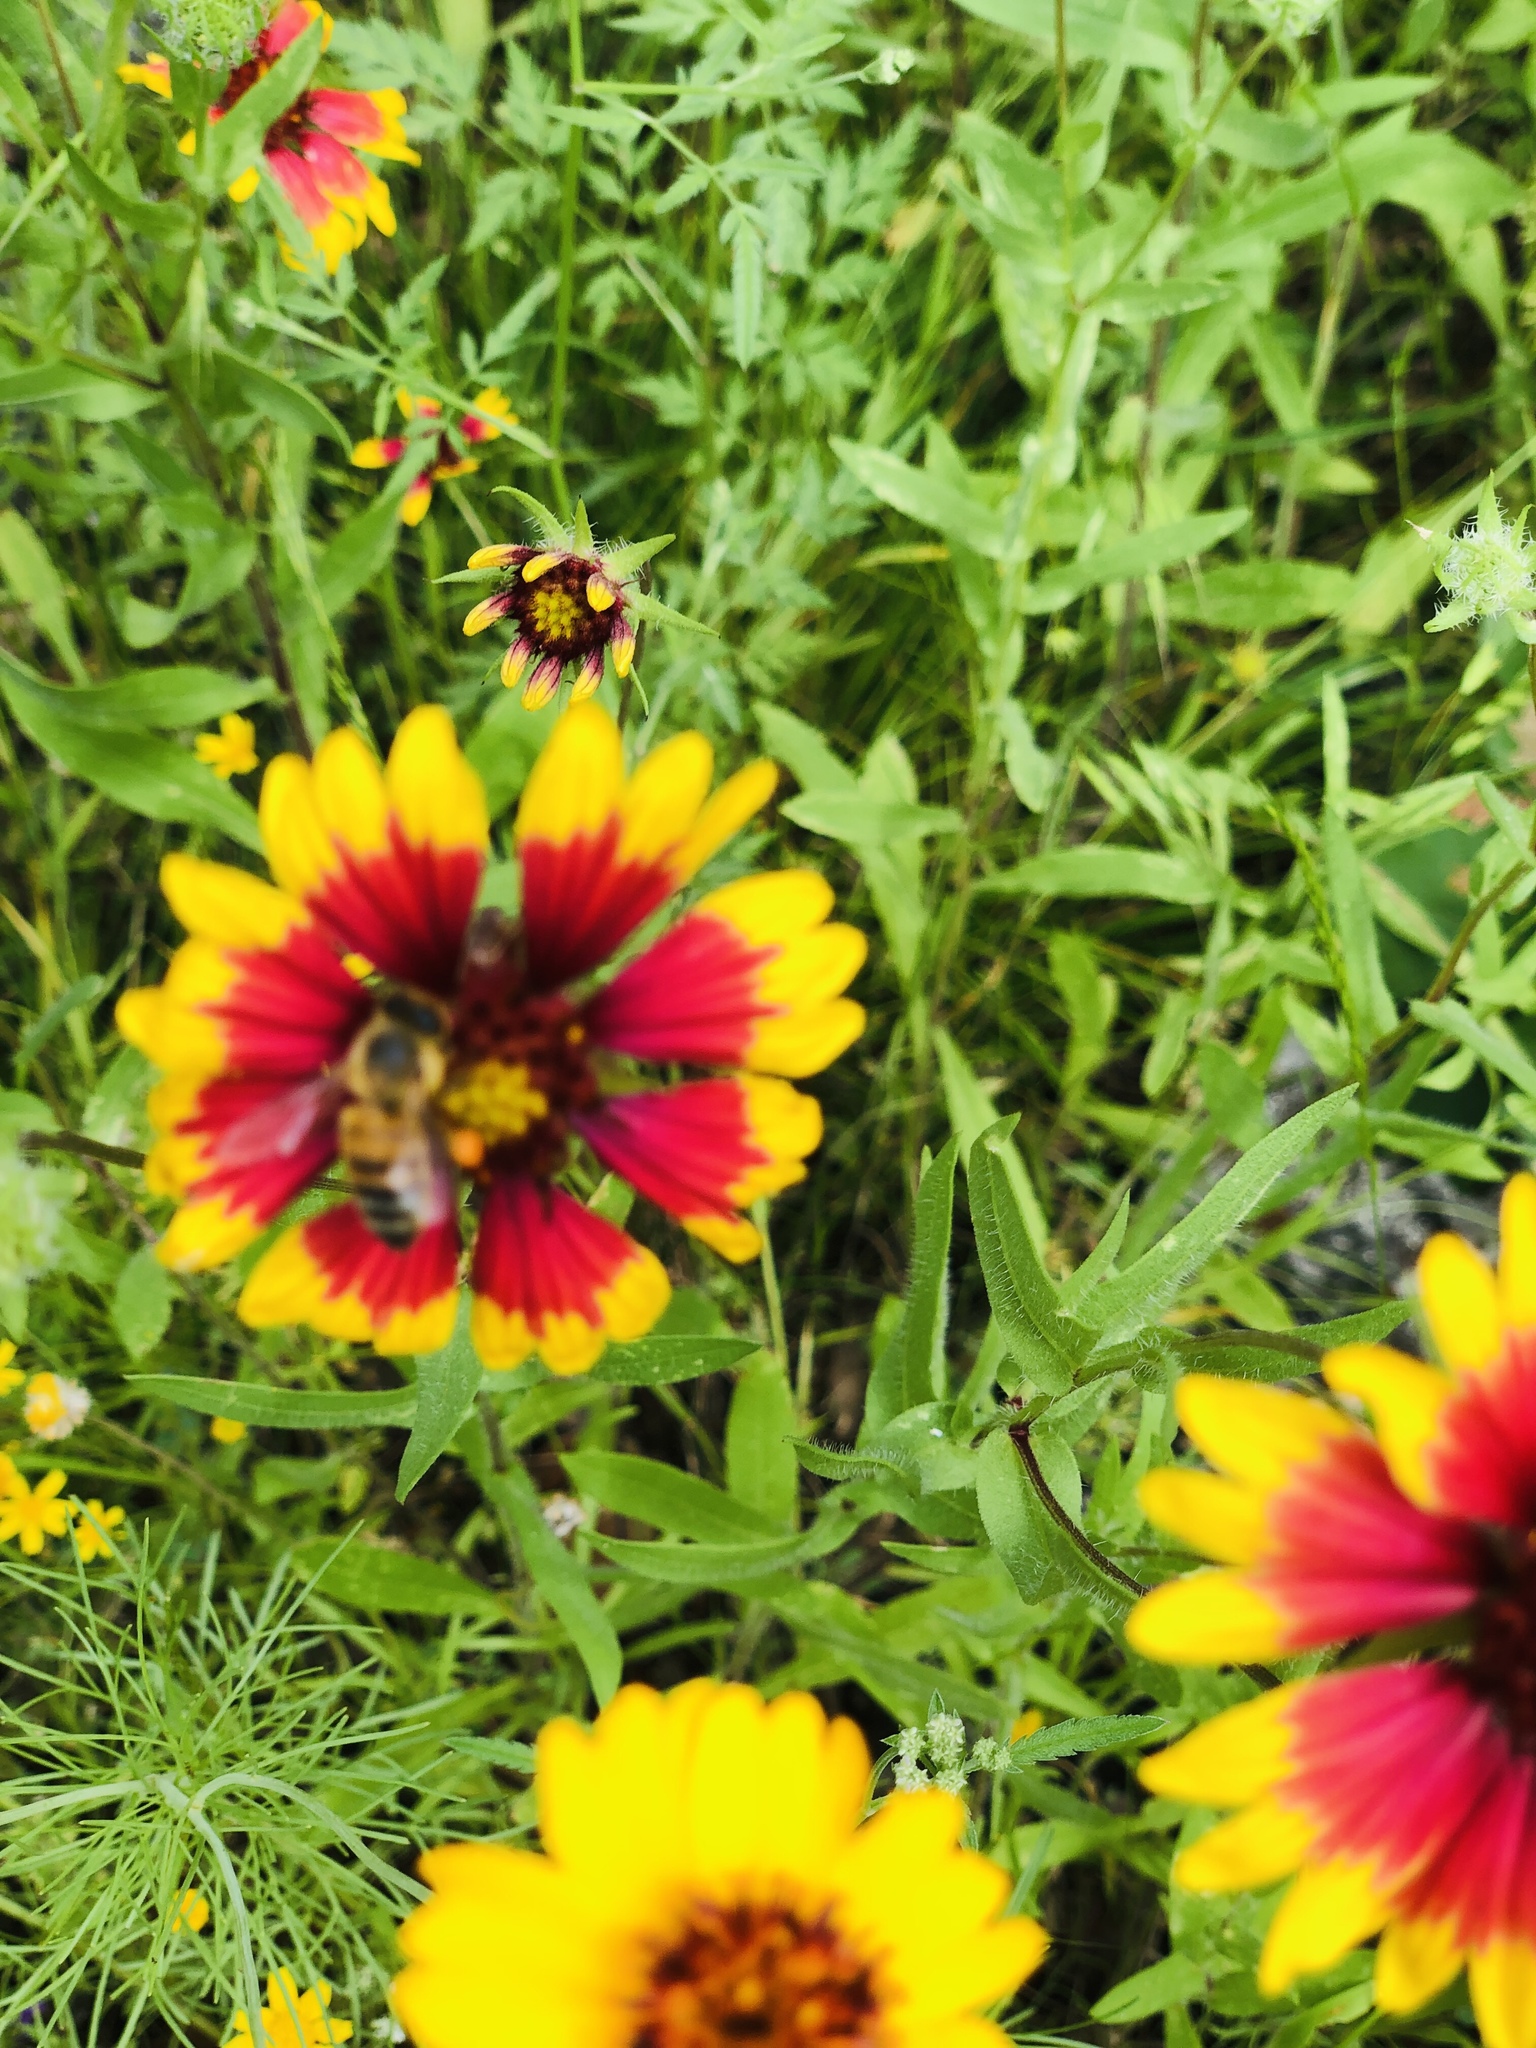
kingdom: Plantae
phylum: Tracheophyta
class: Magnoliopsida
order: Asterales
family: Asteraceae
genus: Gaillardia
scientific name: Gaillardia pulchella
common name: Firewheel
